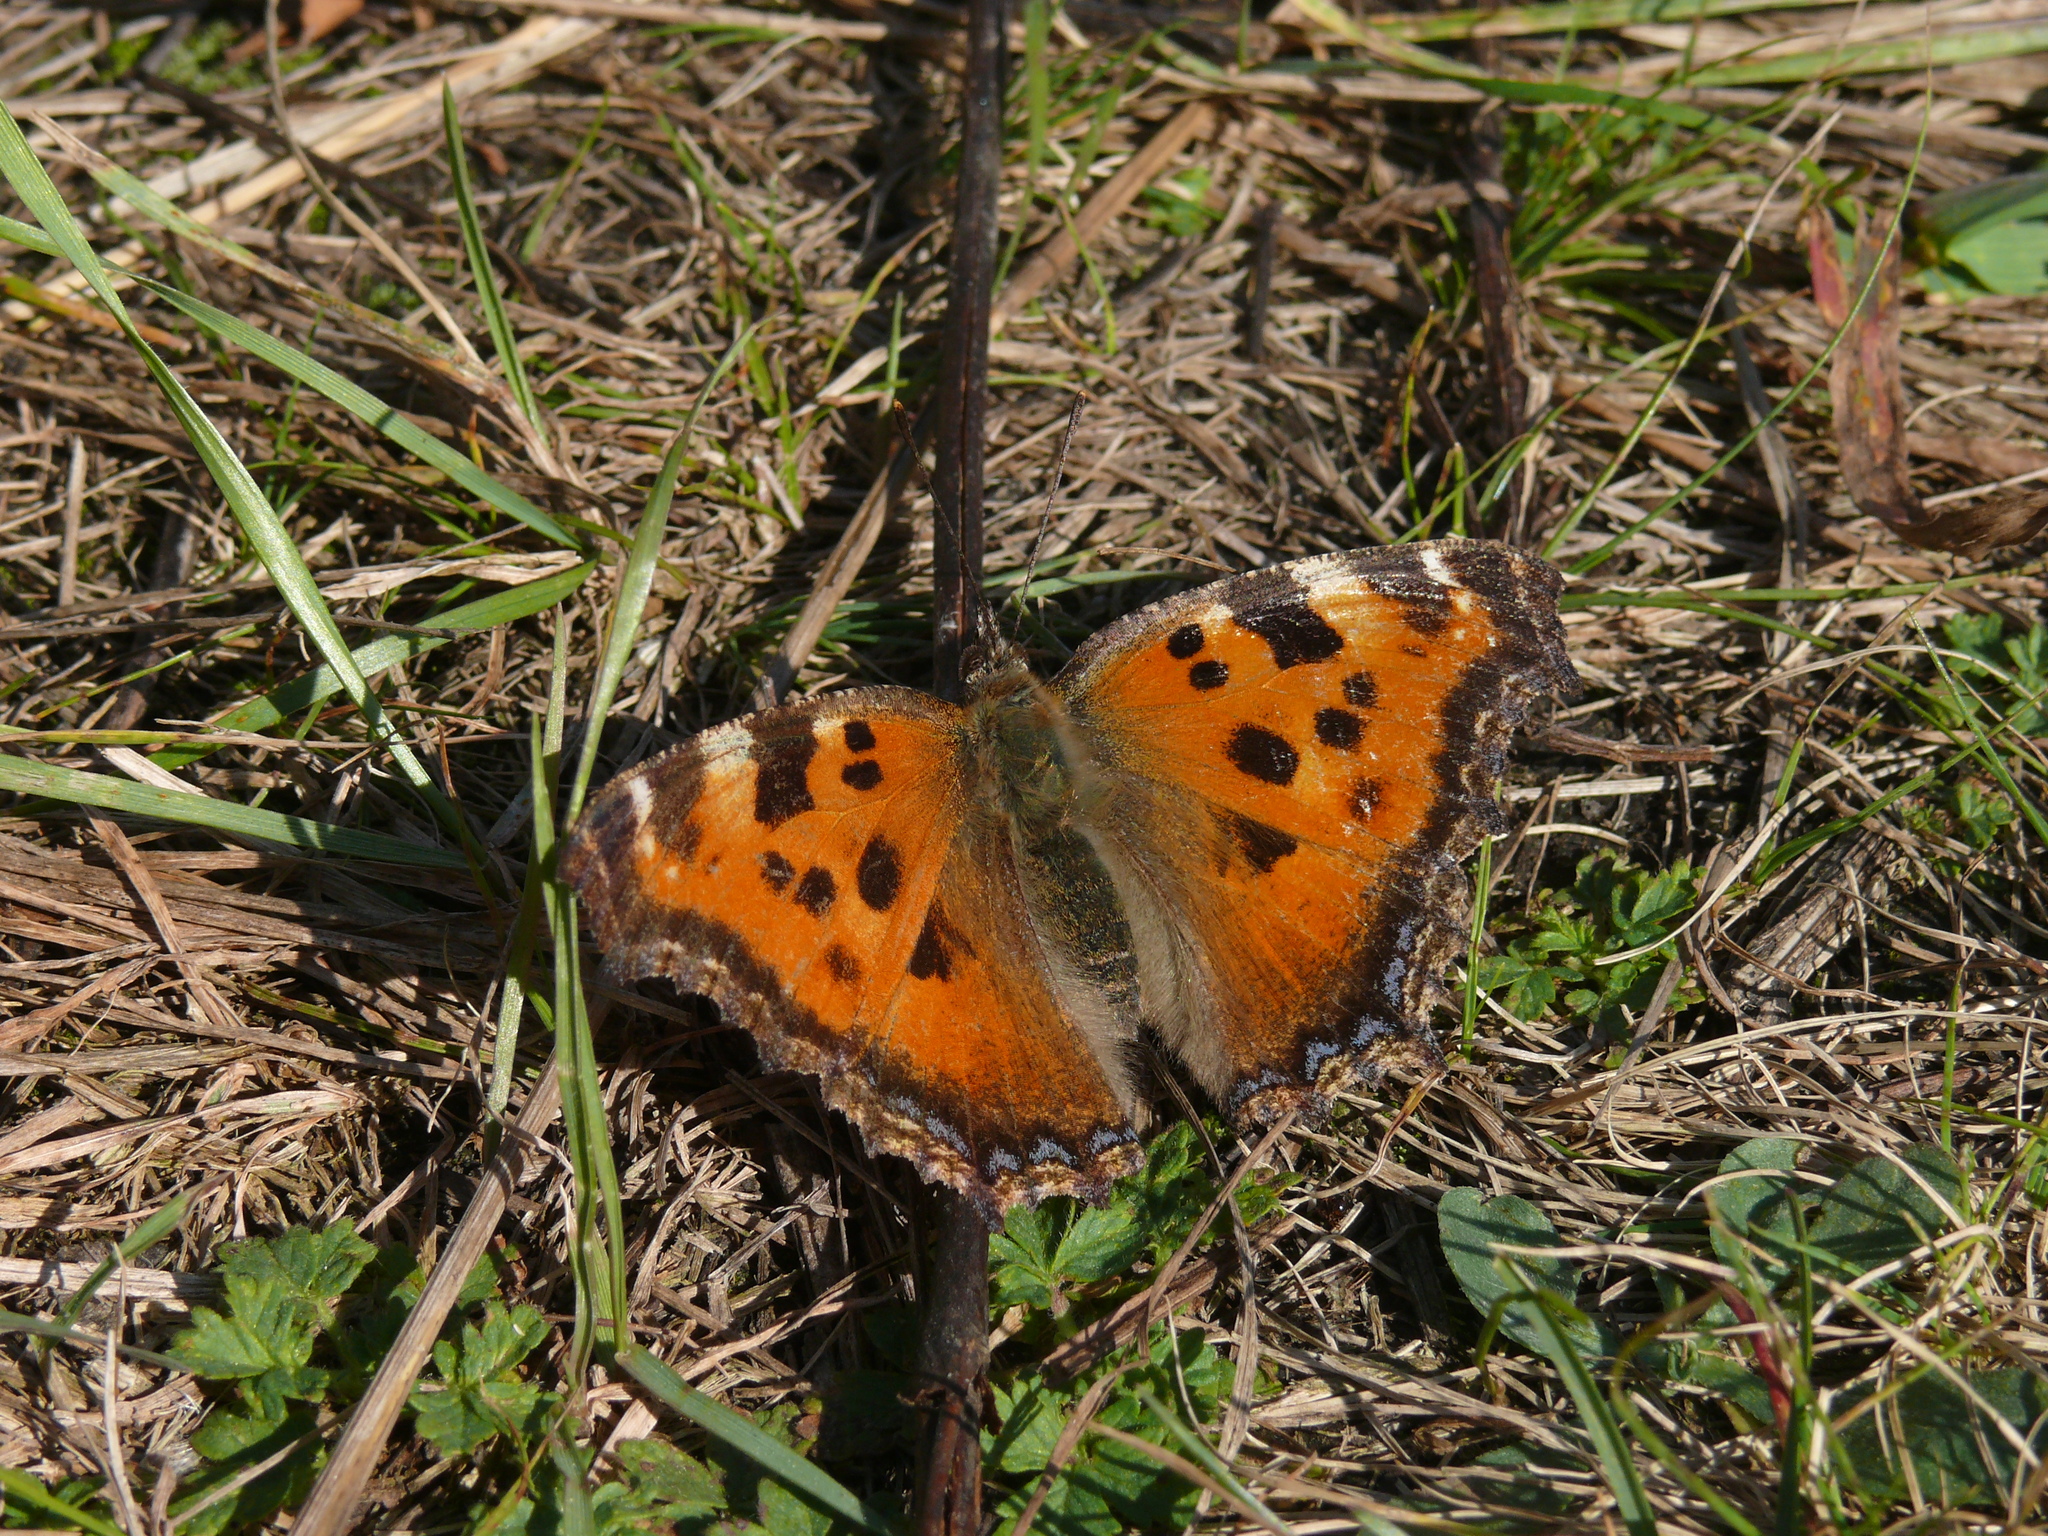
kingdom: Animalia
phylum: Arthropoda
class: Insecta
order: Lepidoptera
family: Nymphalidae
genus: Nymphalis
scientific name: Nymphalis xanthomelas
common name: Scarce tortoiseshell
